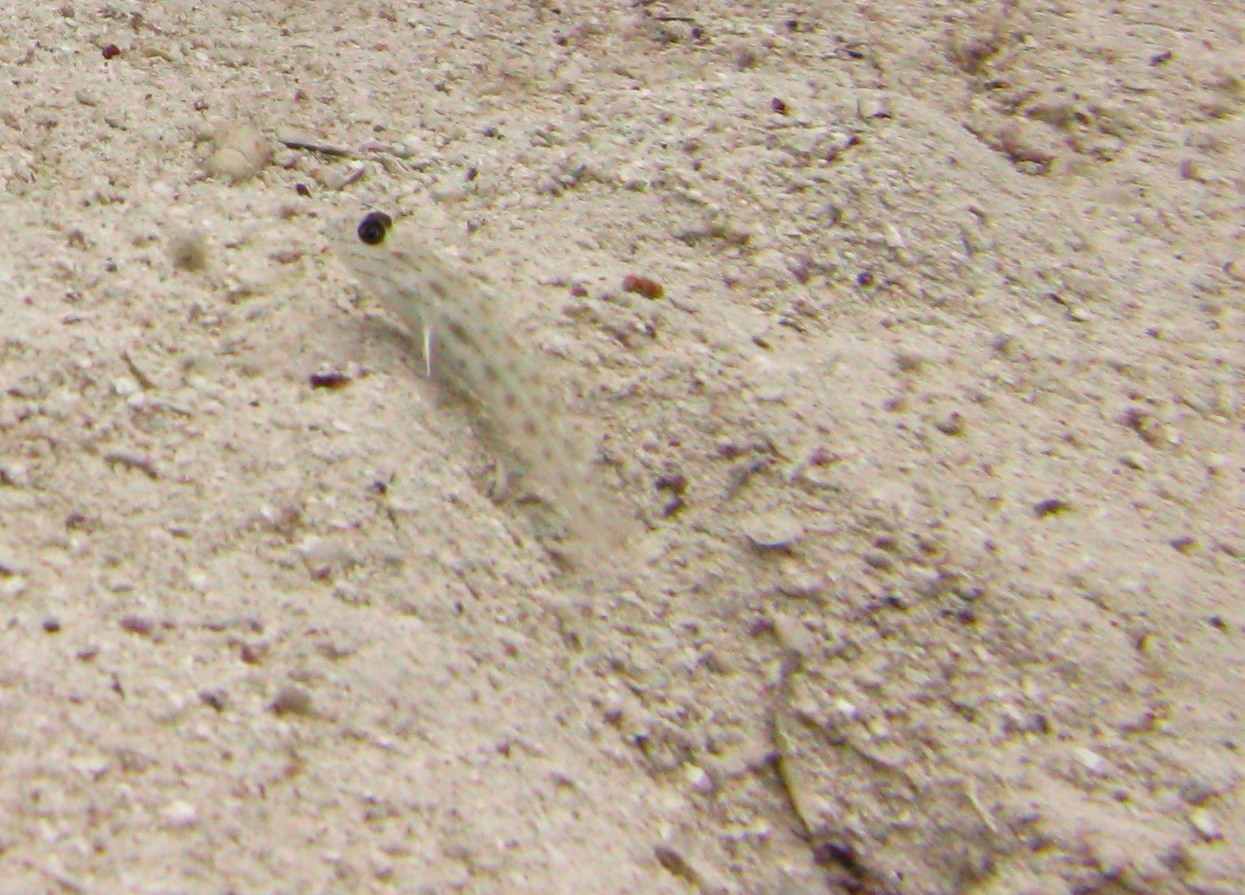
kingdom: Animalia
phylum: Chordata
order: Perciformes
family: Gobiidae
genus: Ctenogobiops
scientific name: Ctenogobiops crocineus
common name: Silverspot shrimpgoby
